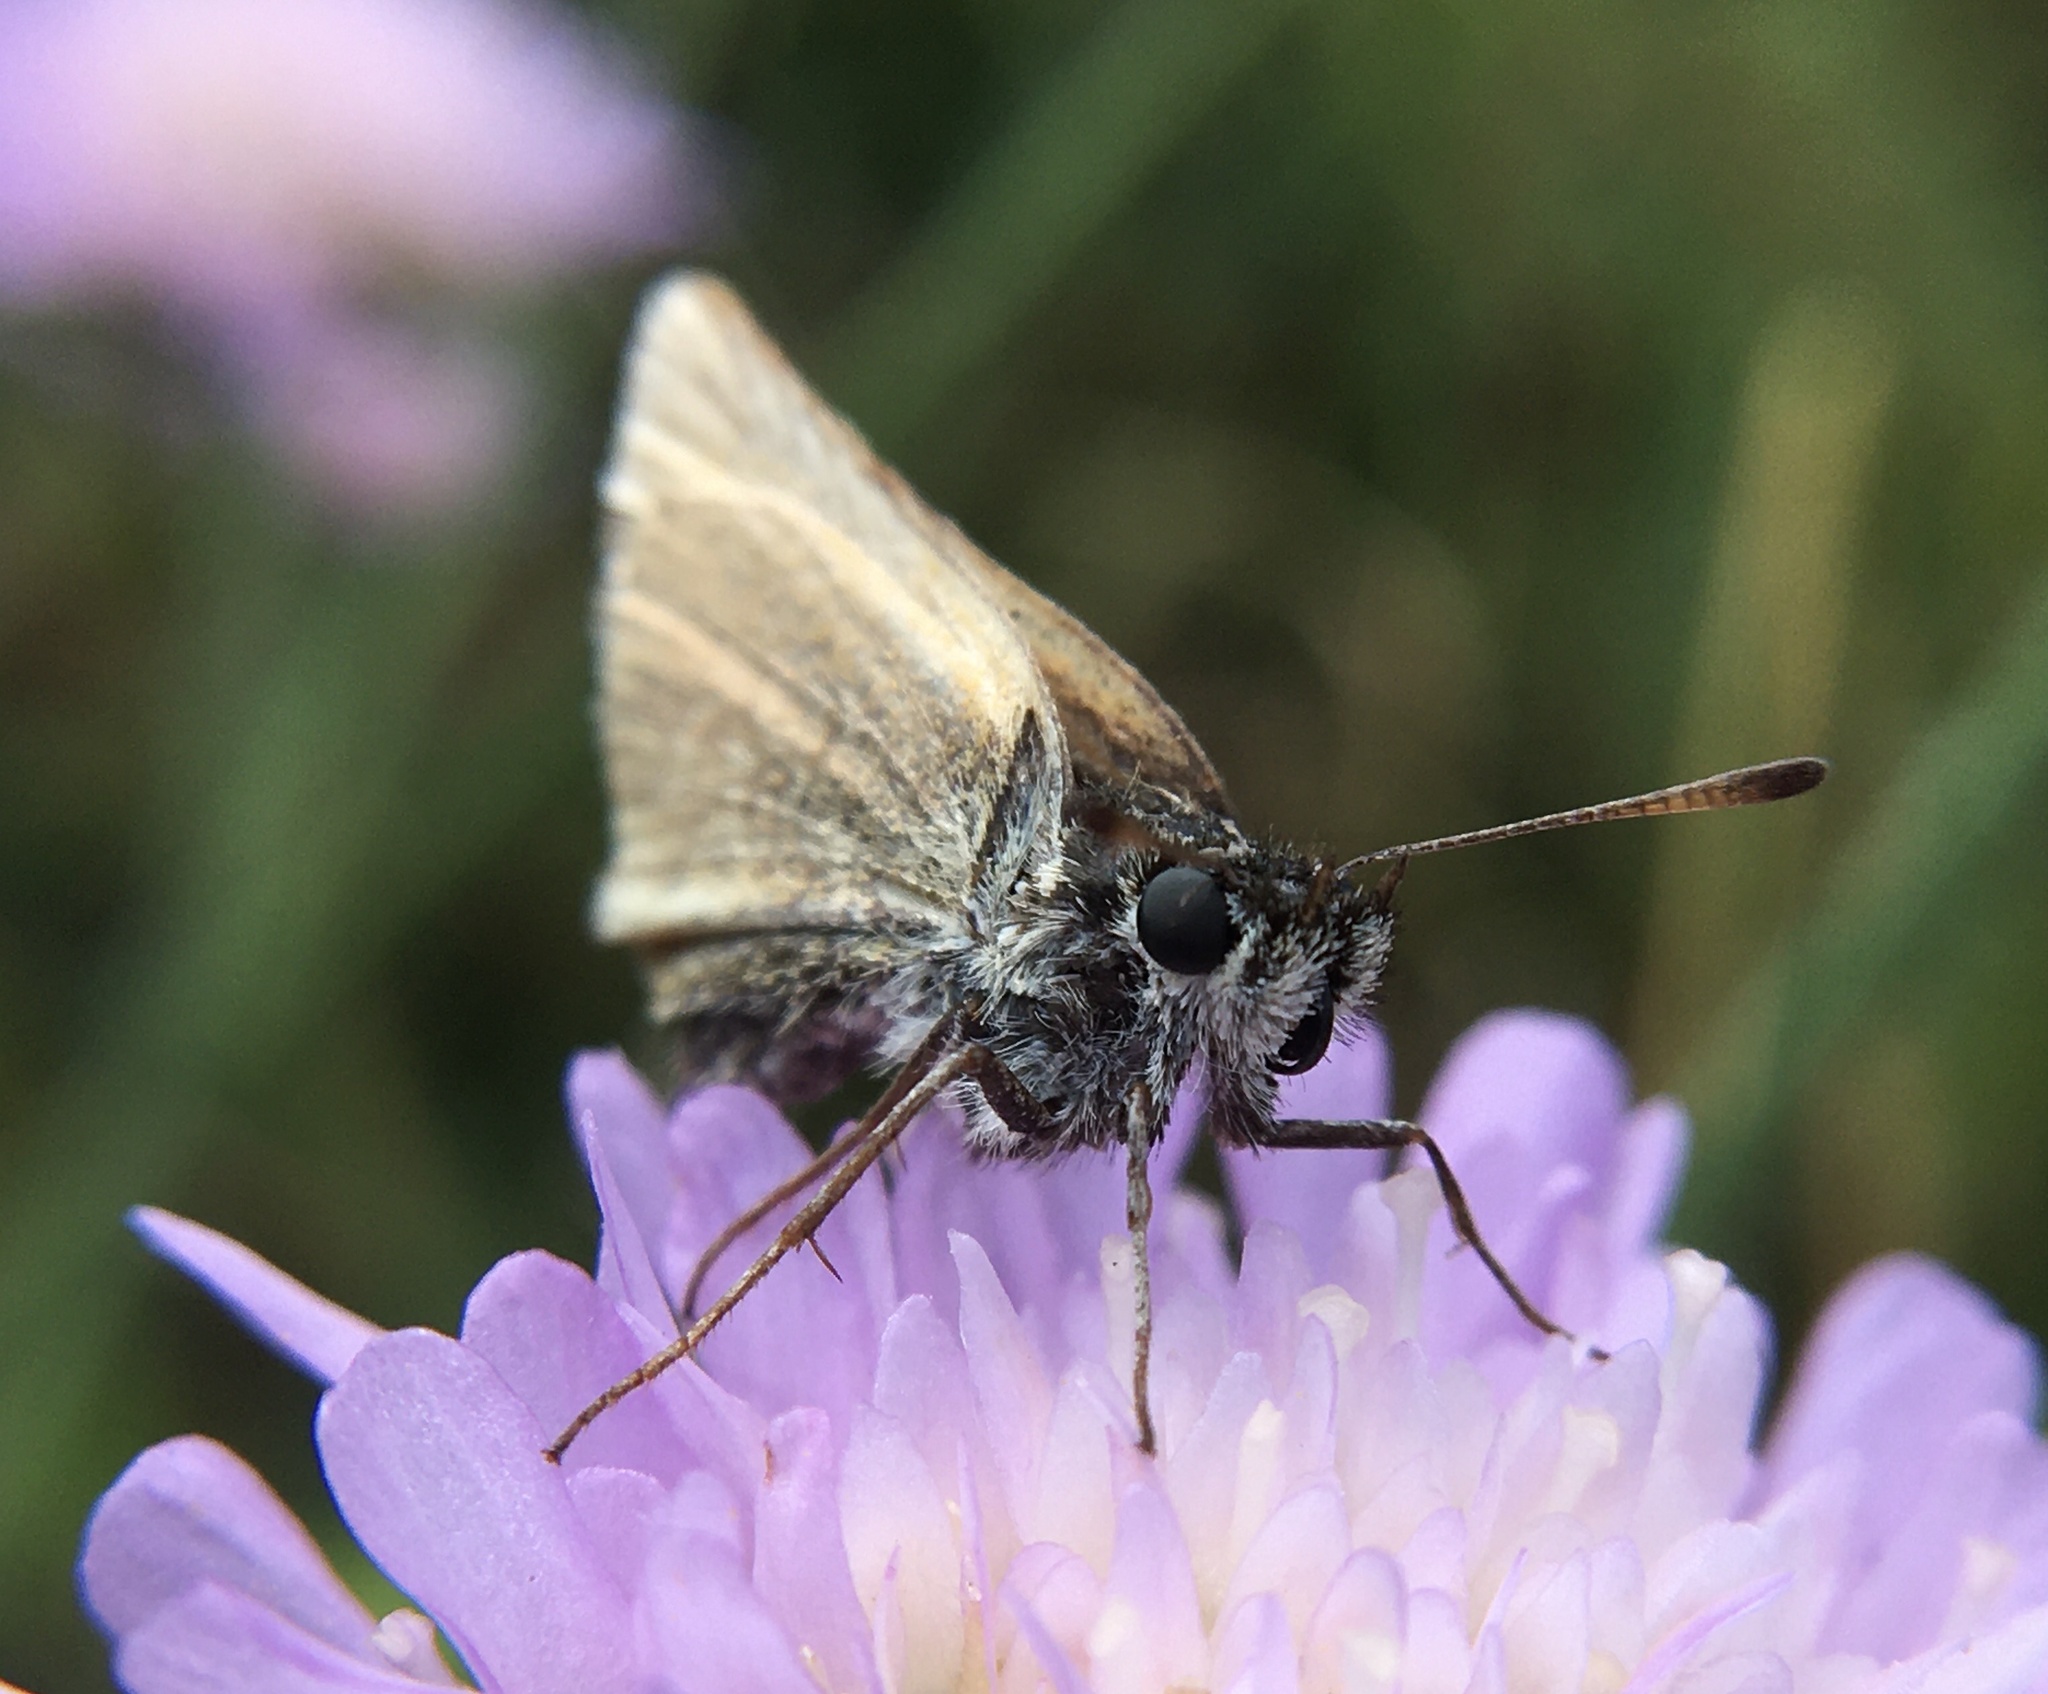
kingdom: Animalia
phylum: Arthropoda
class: Insecta
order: Lepidoptera
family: Hesperiidae
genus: Thymelicus
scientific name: Thymelicus lineola
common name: Essex skipper
